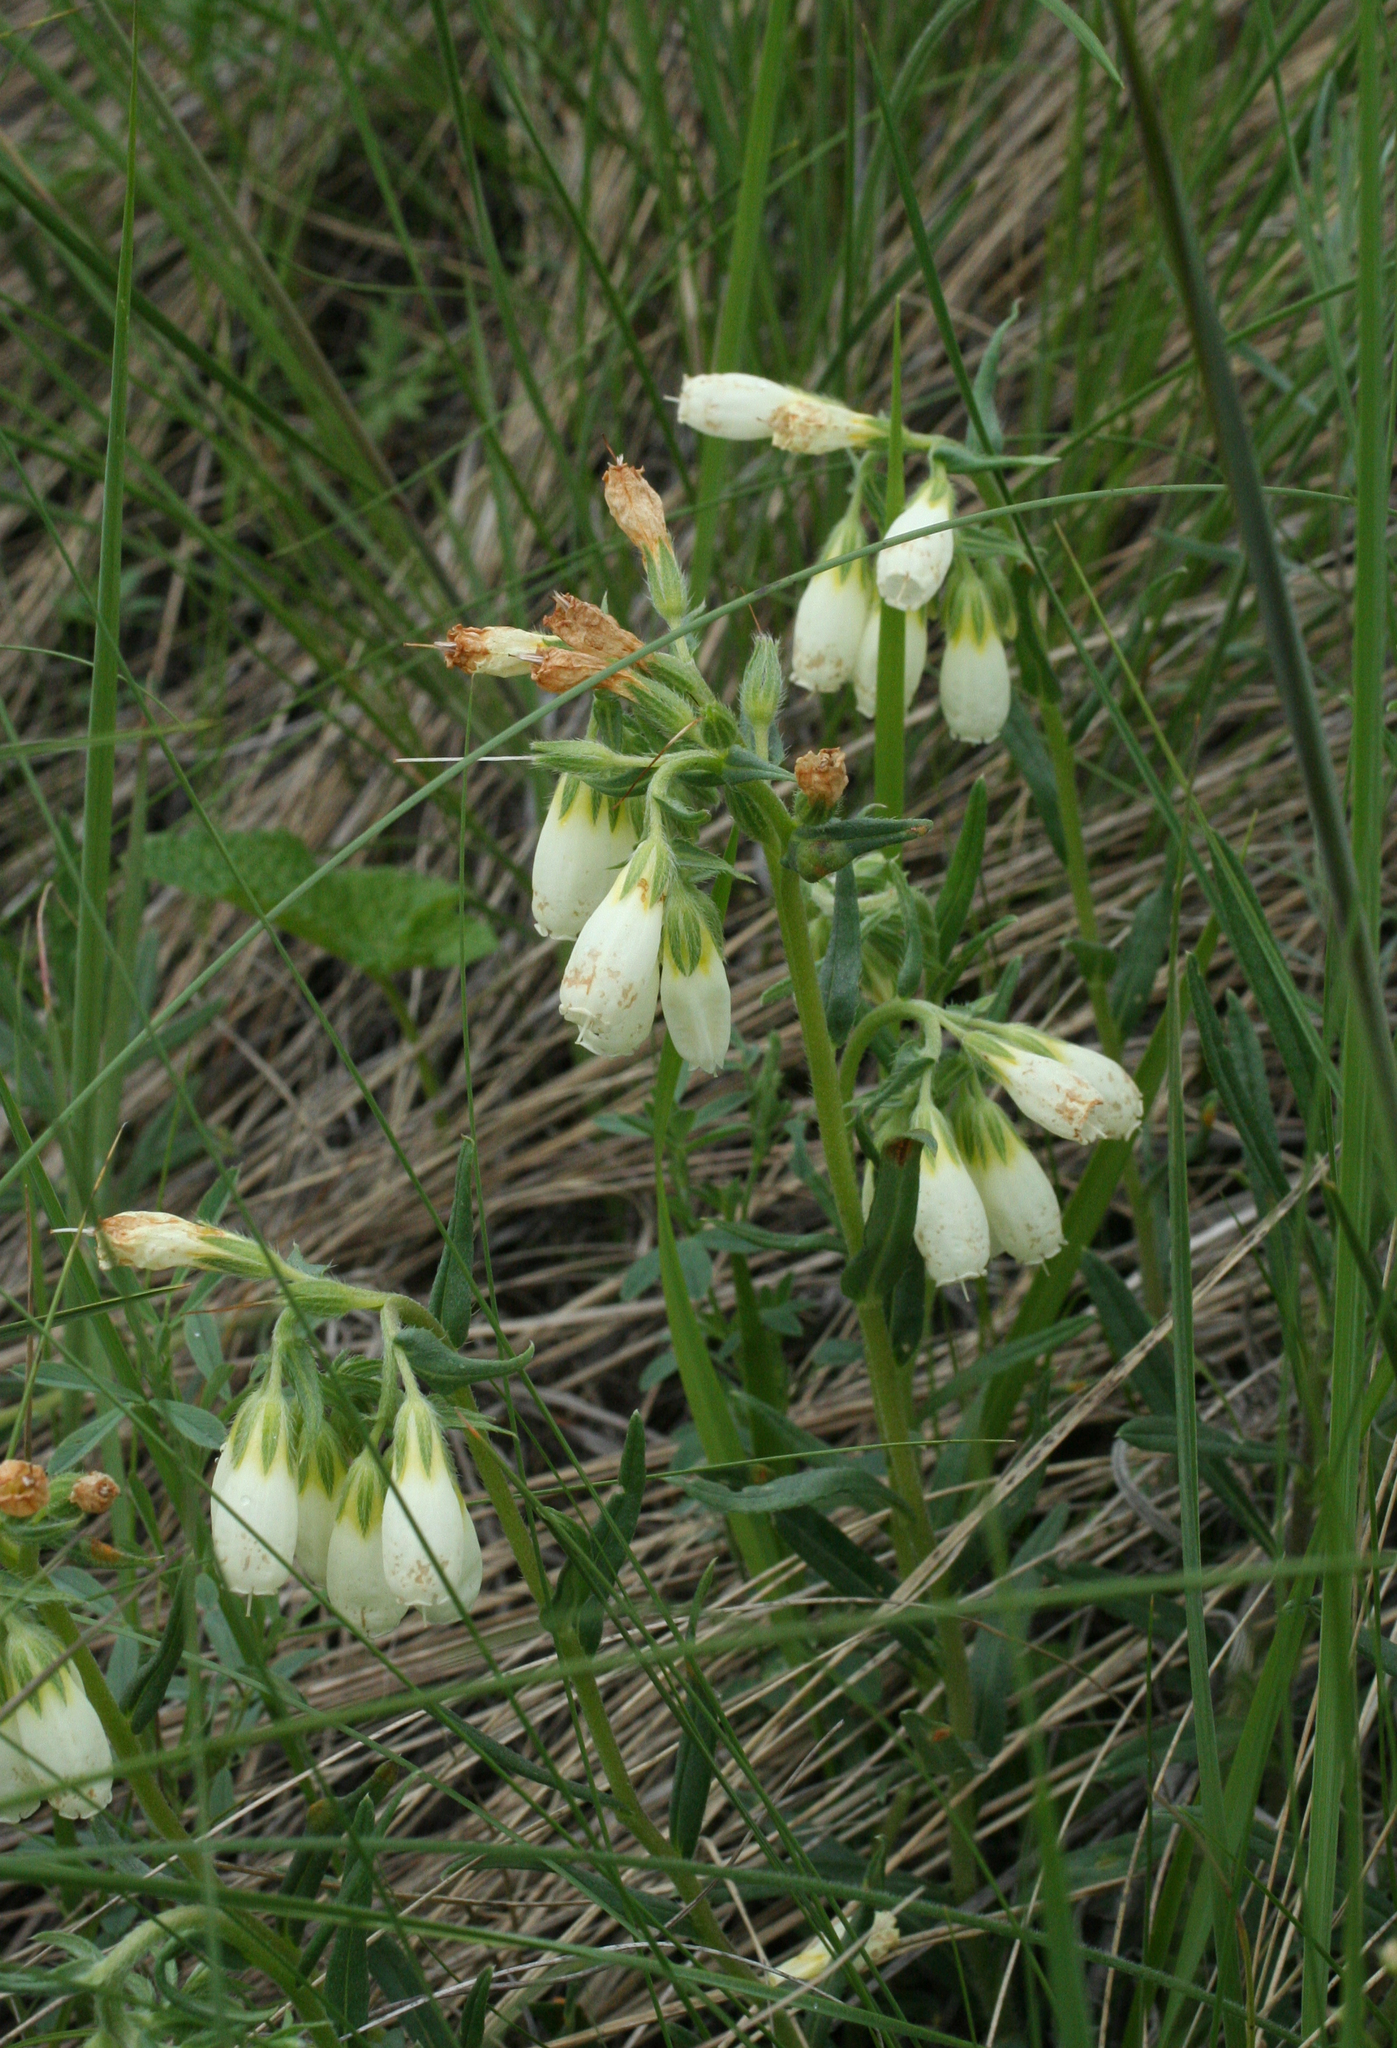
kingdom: Plantae
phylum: Tracheophyta
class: Magnoliopsida
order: Boraginales
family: Boraginaceae
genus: Onosma
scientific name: Onosma simplicissima
